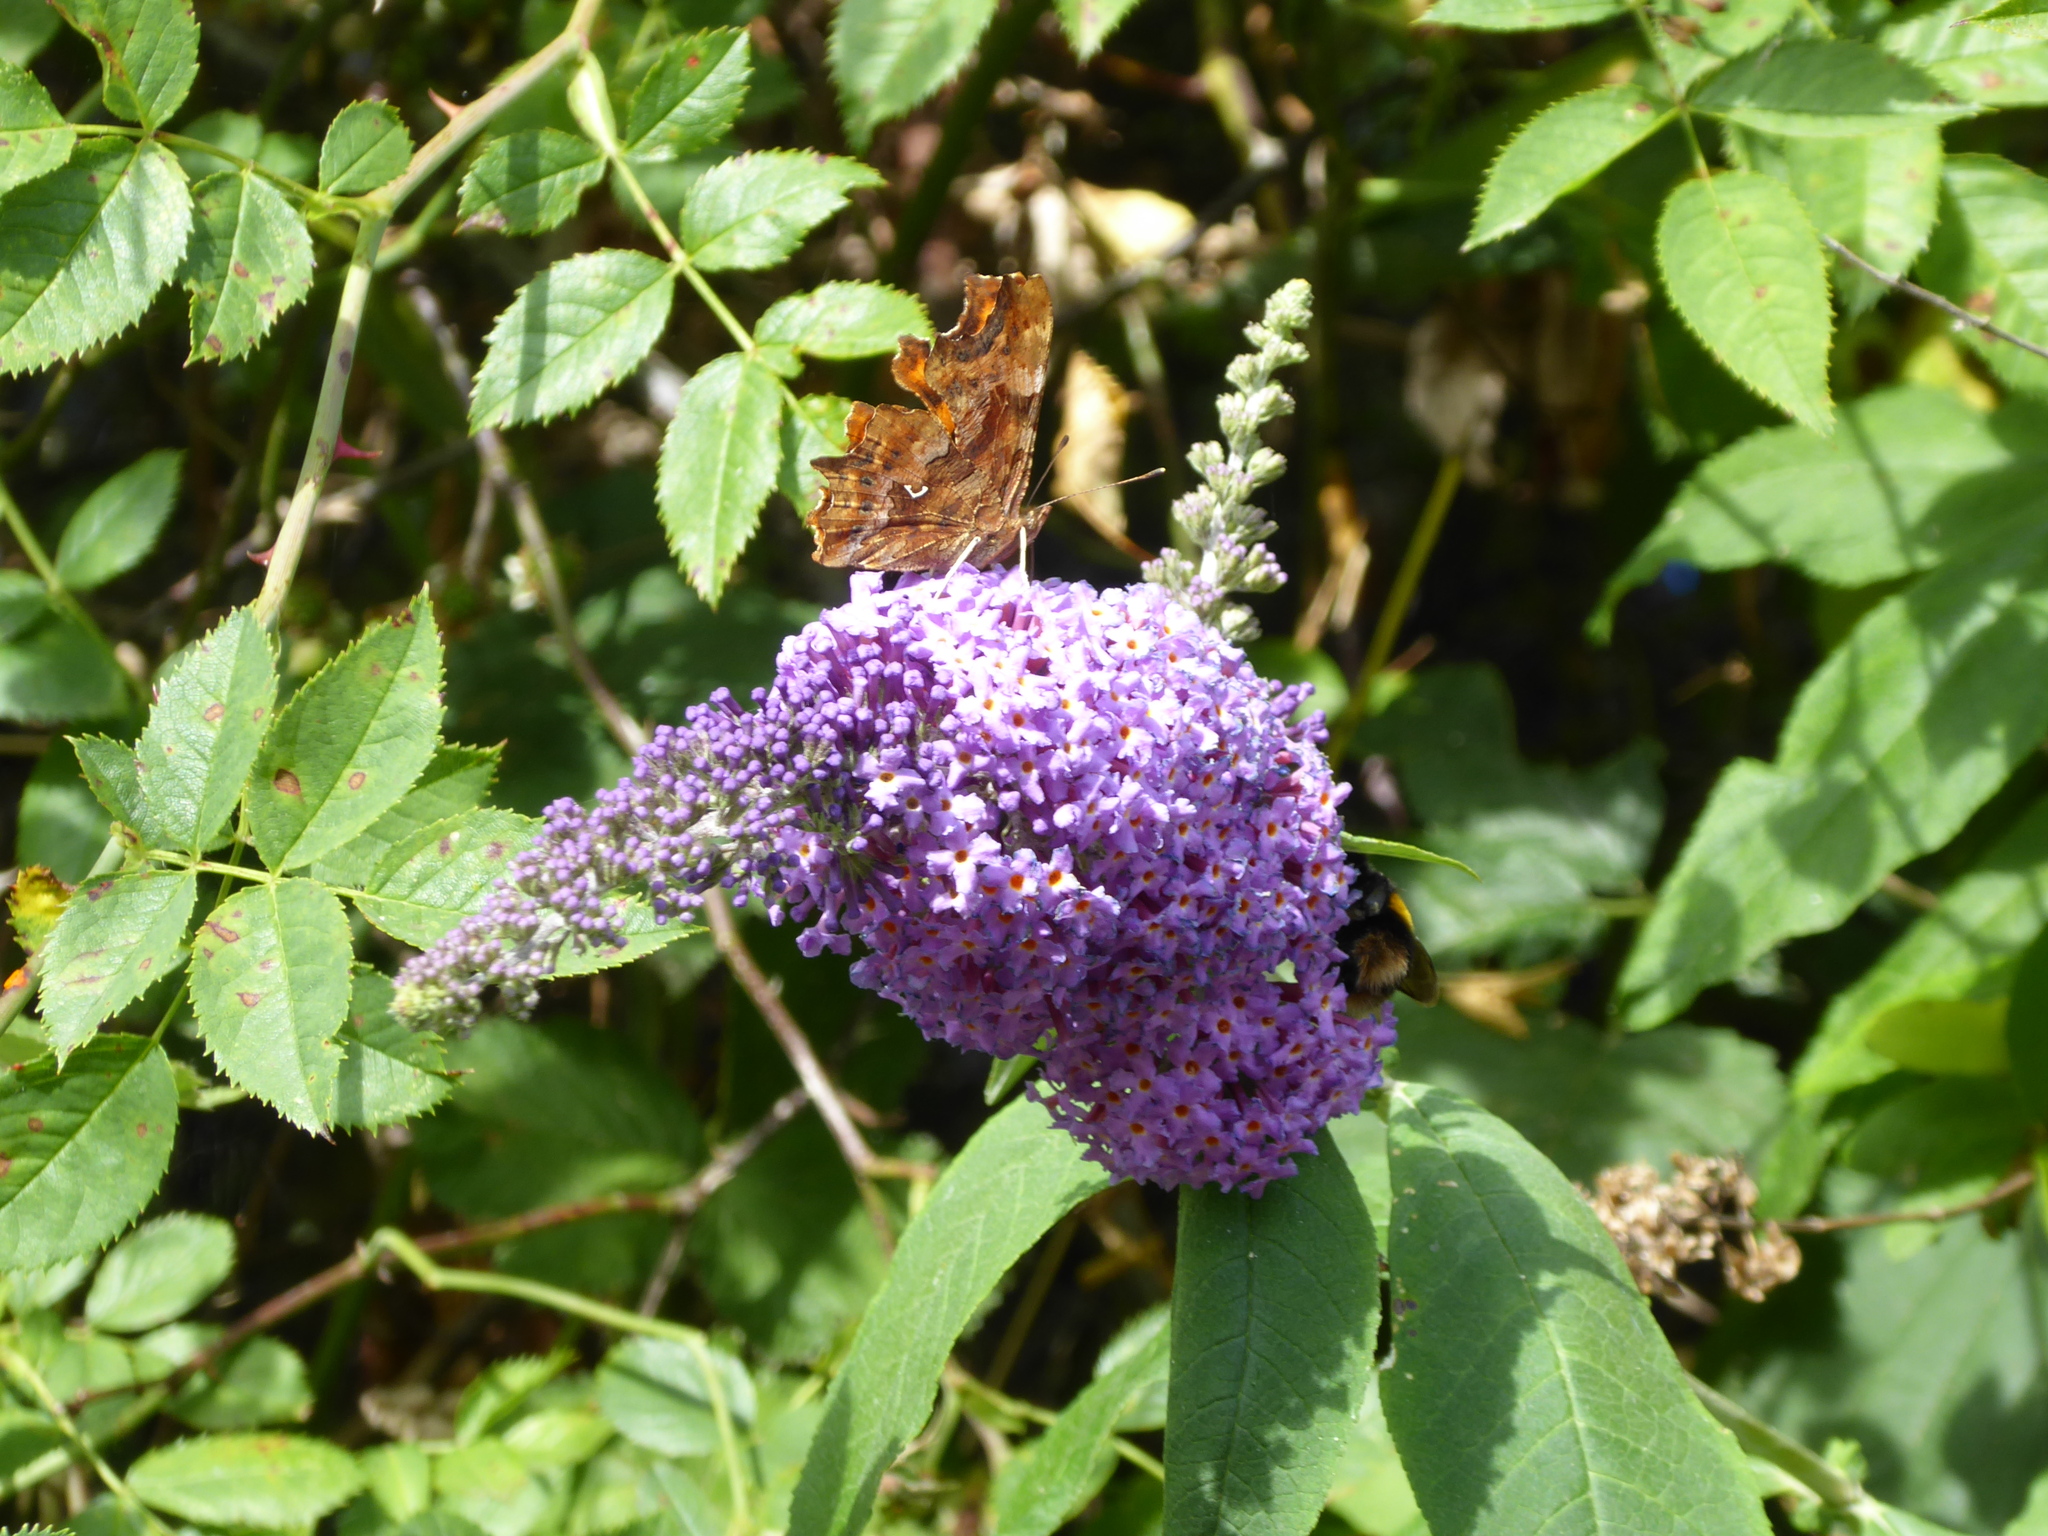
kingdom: Plantae
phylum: Tracheophyta
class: Magnoliopsida
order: Lamiales
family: Scrophulariaceae
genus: Buddleja
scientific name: Buddleja davidii
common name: Butterfly-bush
